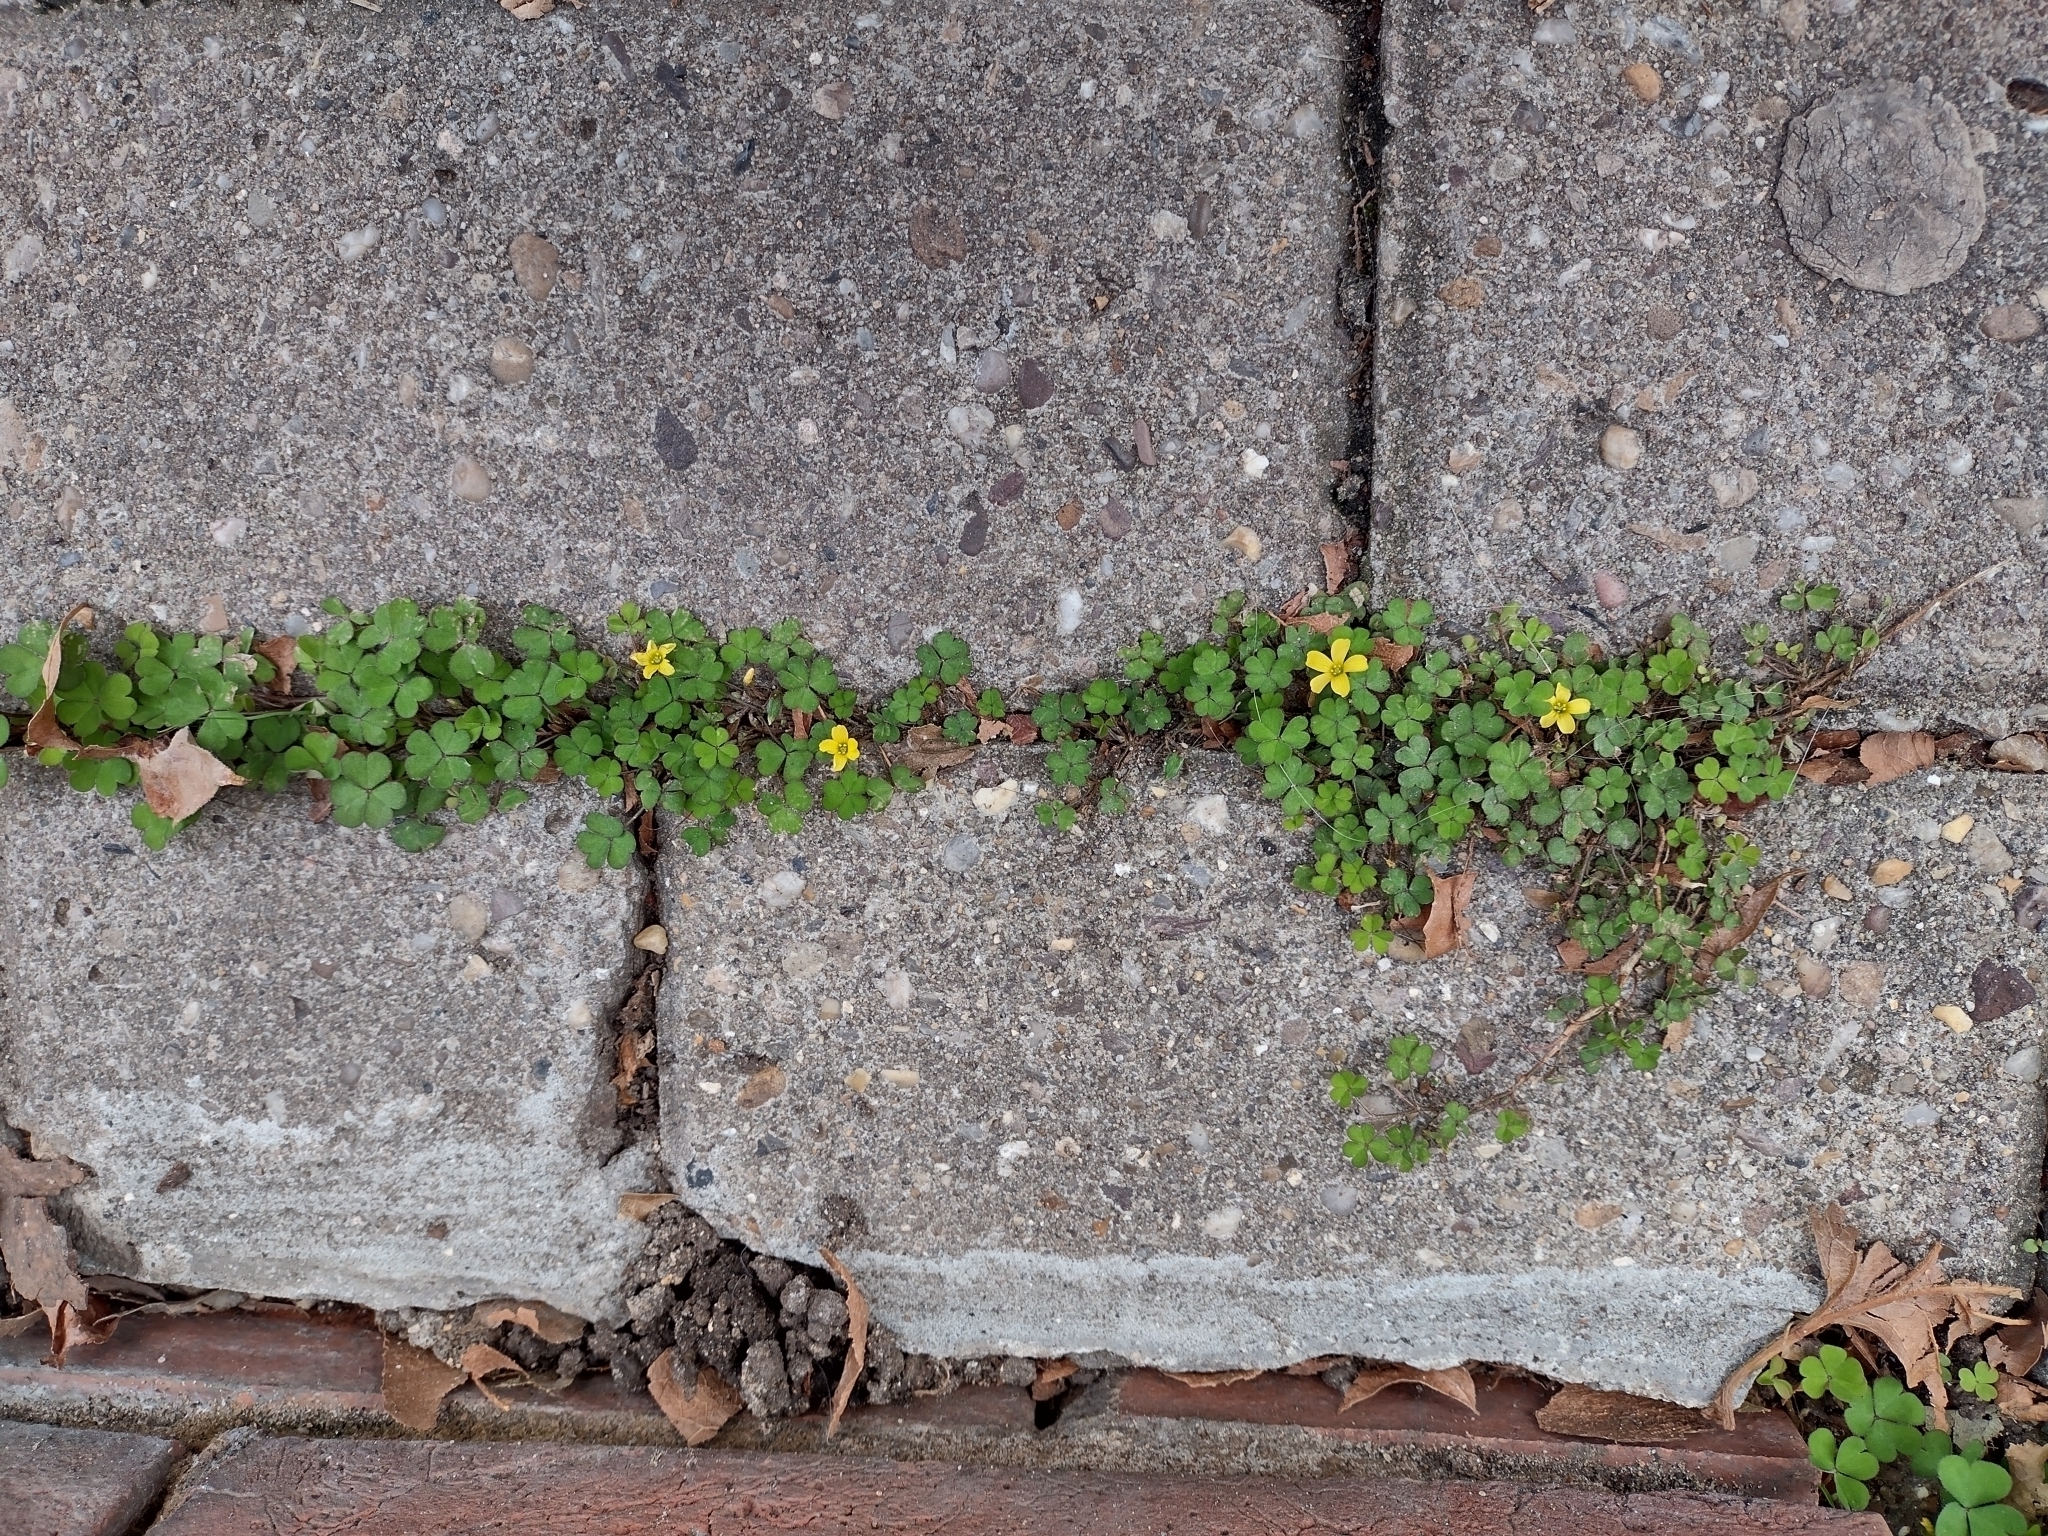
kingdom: Plantae
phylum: Tracheophyta
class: Magnoliopsida
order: Oxalidales
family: Oxalidaceae
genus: Oxalis
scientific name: Oxalis exilis
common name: Least yellow-sorrel
